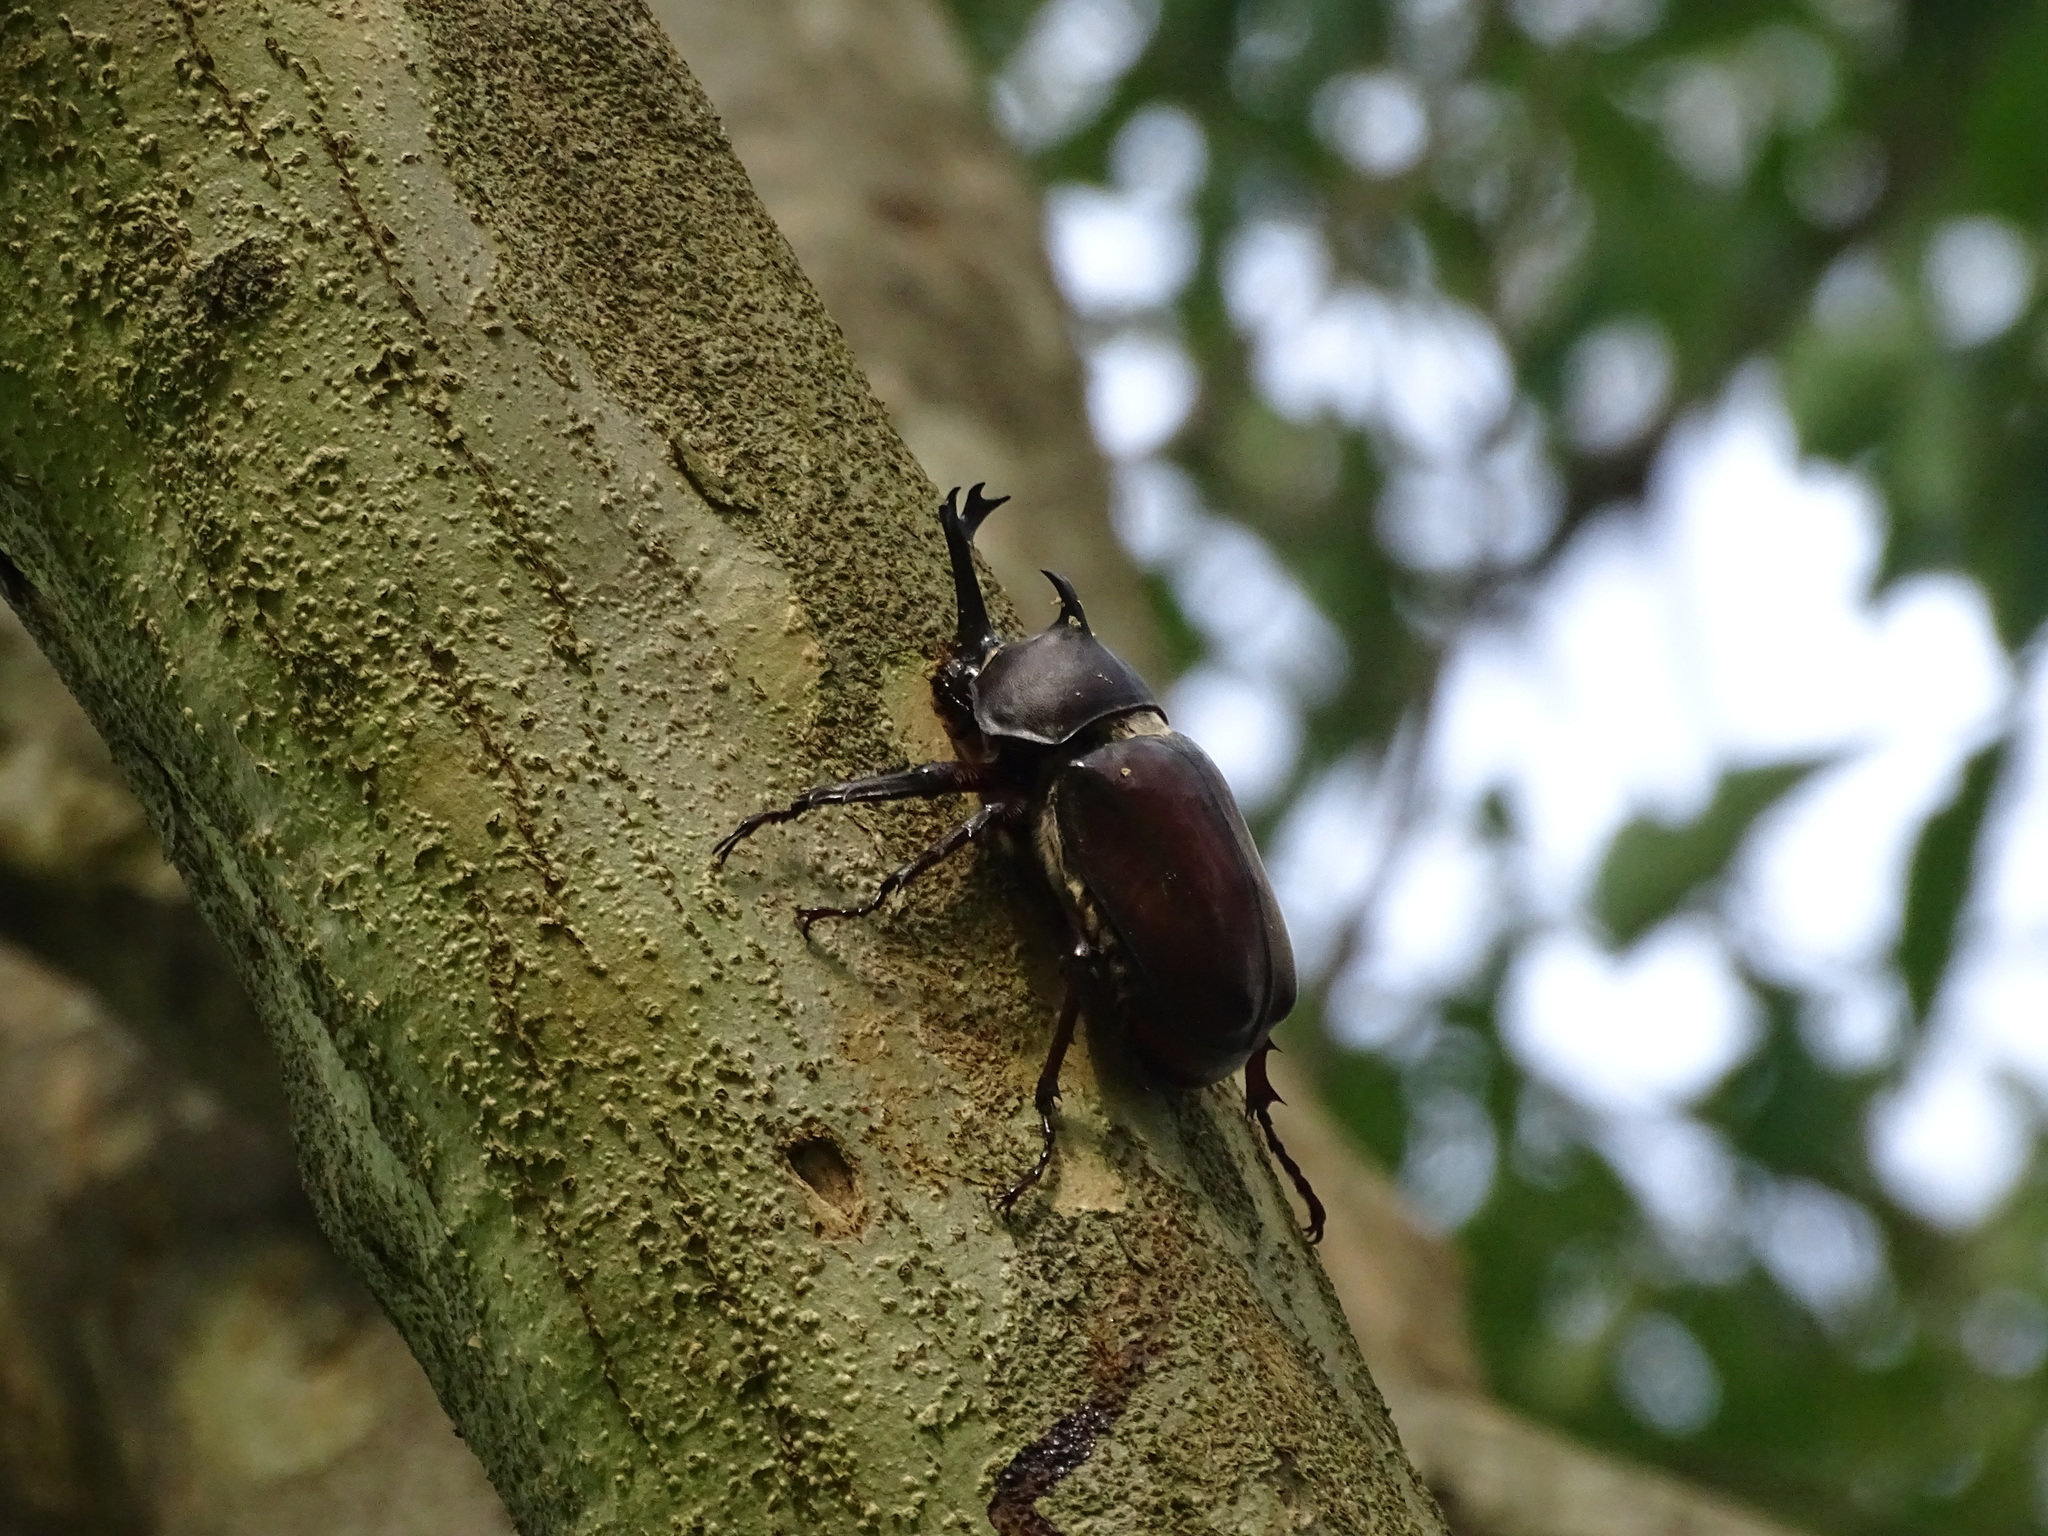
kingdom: Animalia
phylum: Arthropoda
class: Insecta
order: Coleoptera
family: Scarabaeidae
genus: Trypoxylus
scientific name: Trypoxylus dichotomus
